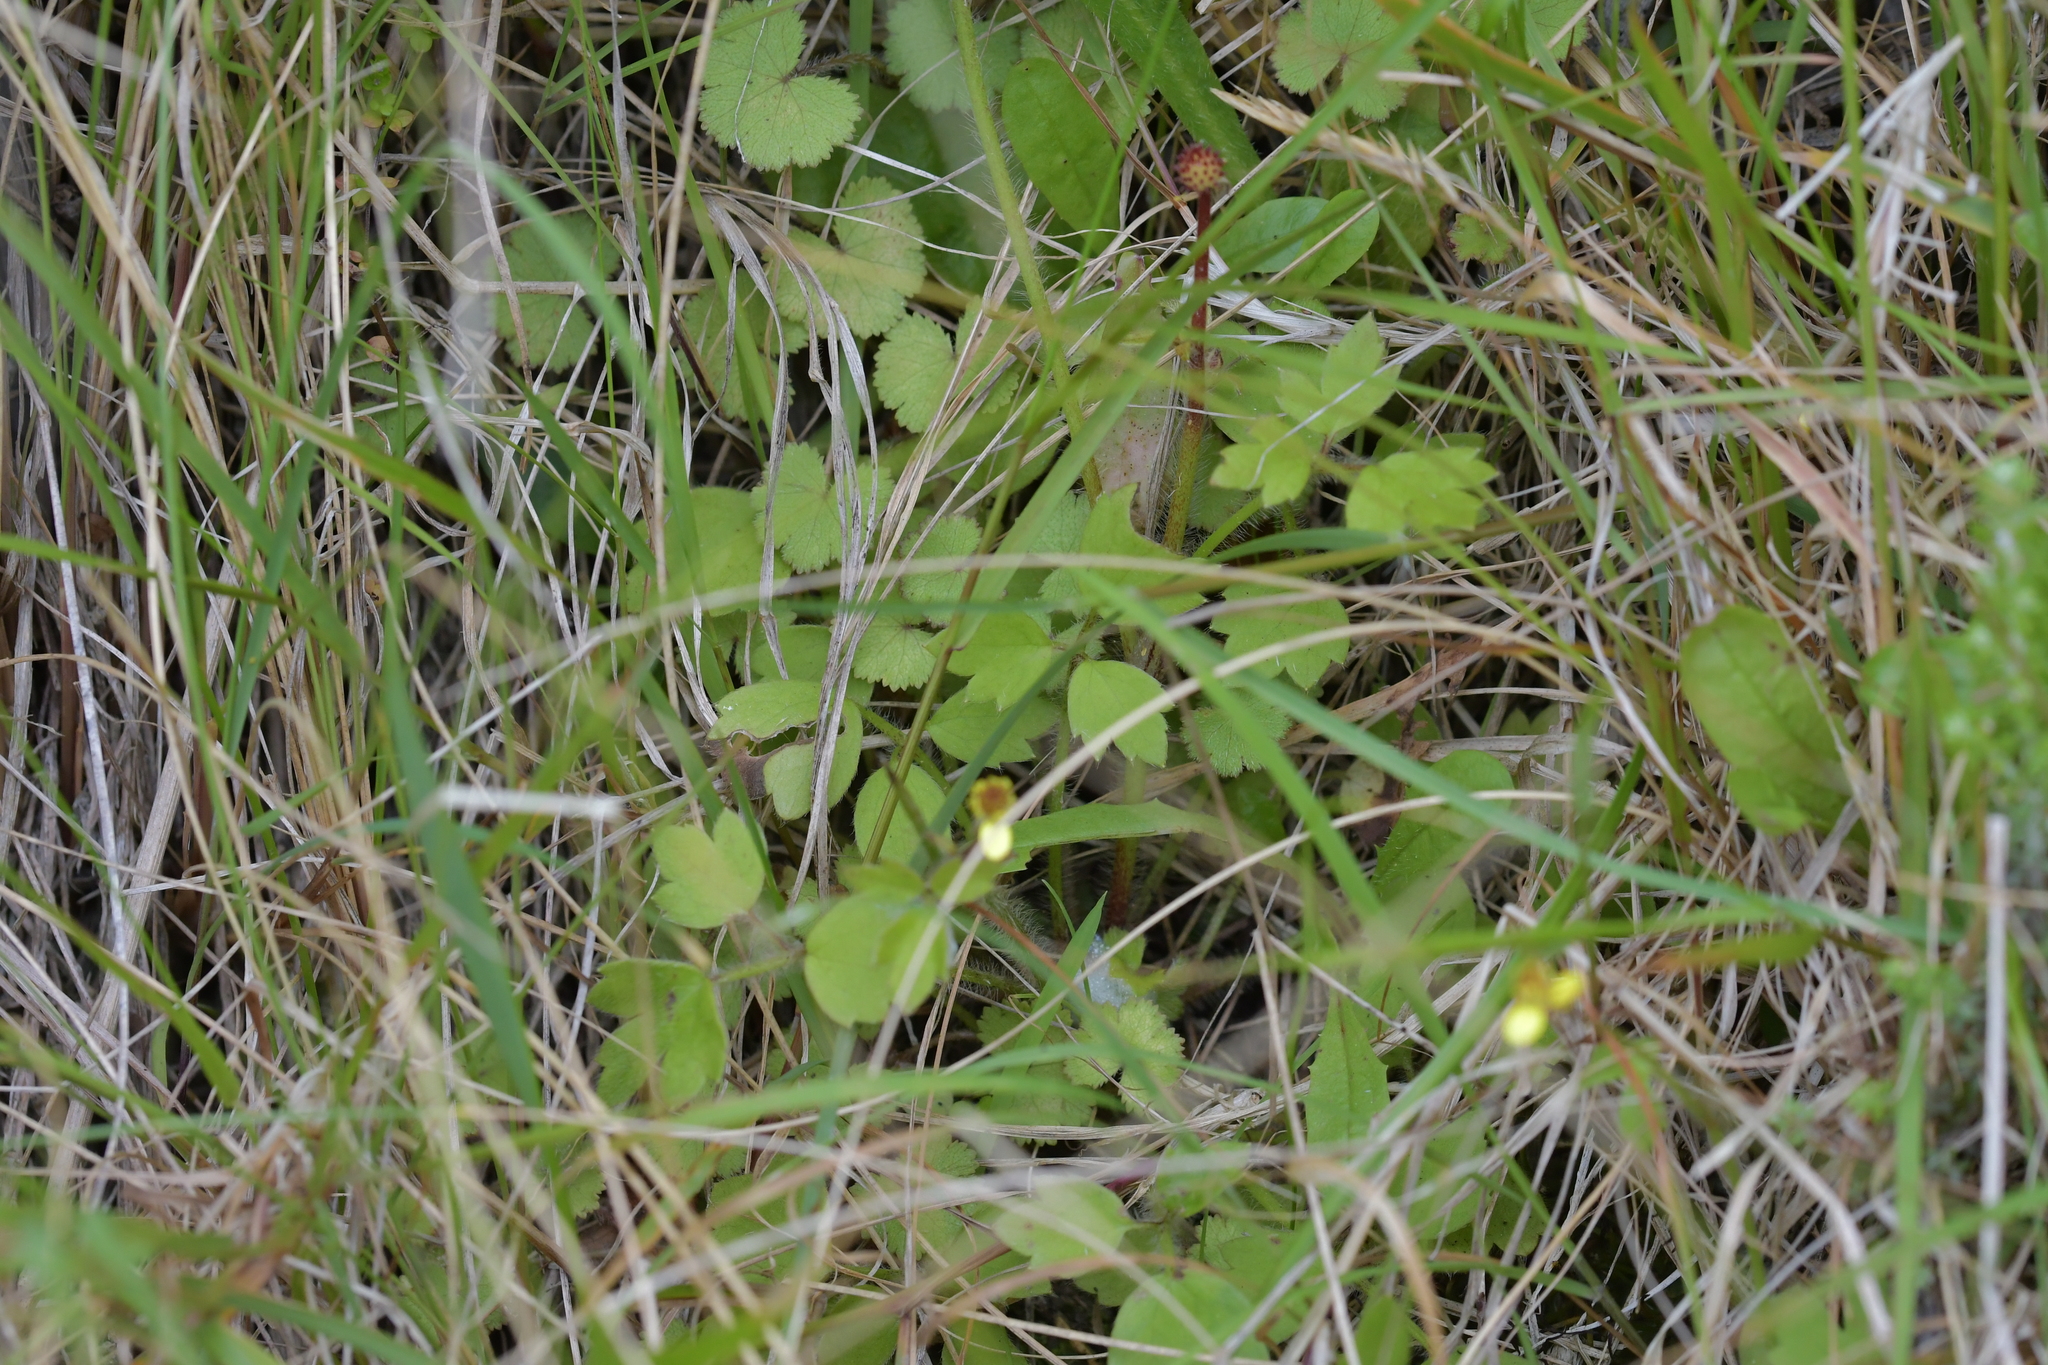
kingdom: Plantae
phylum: Tracheophyta
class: Magnoliopsida
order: Ranunculales
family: Ranunculaceae
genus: Ranunculus
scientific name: Ranunculus reflexus
